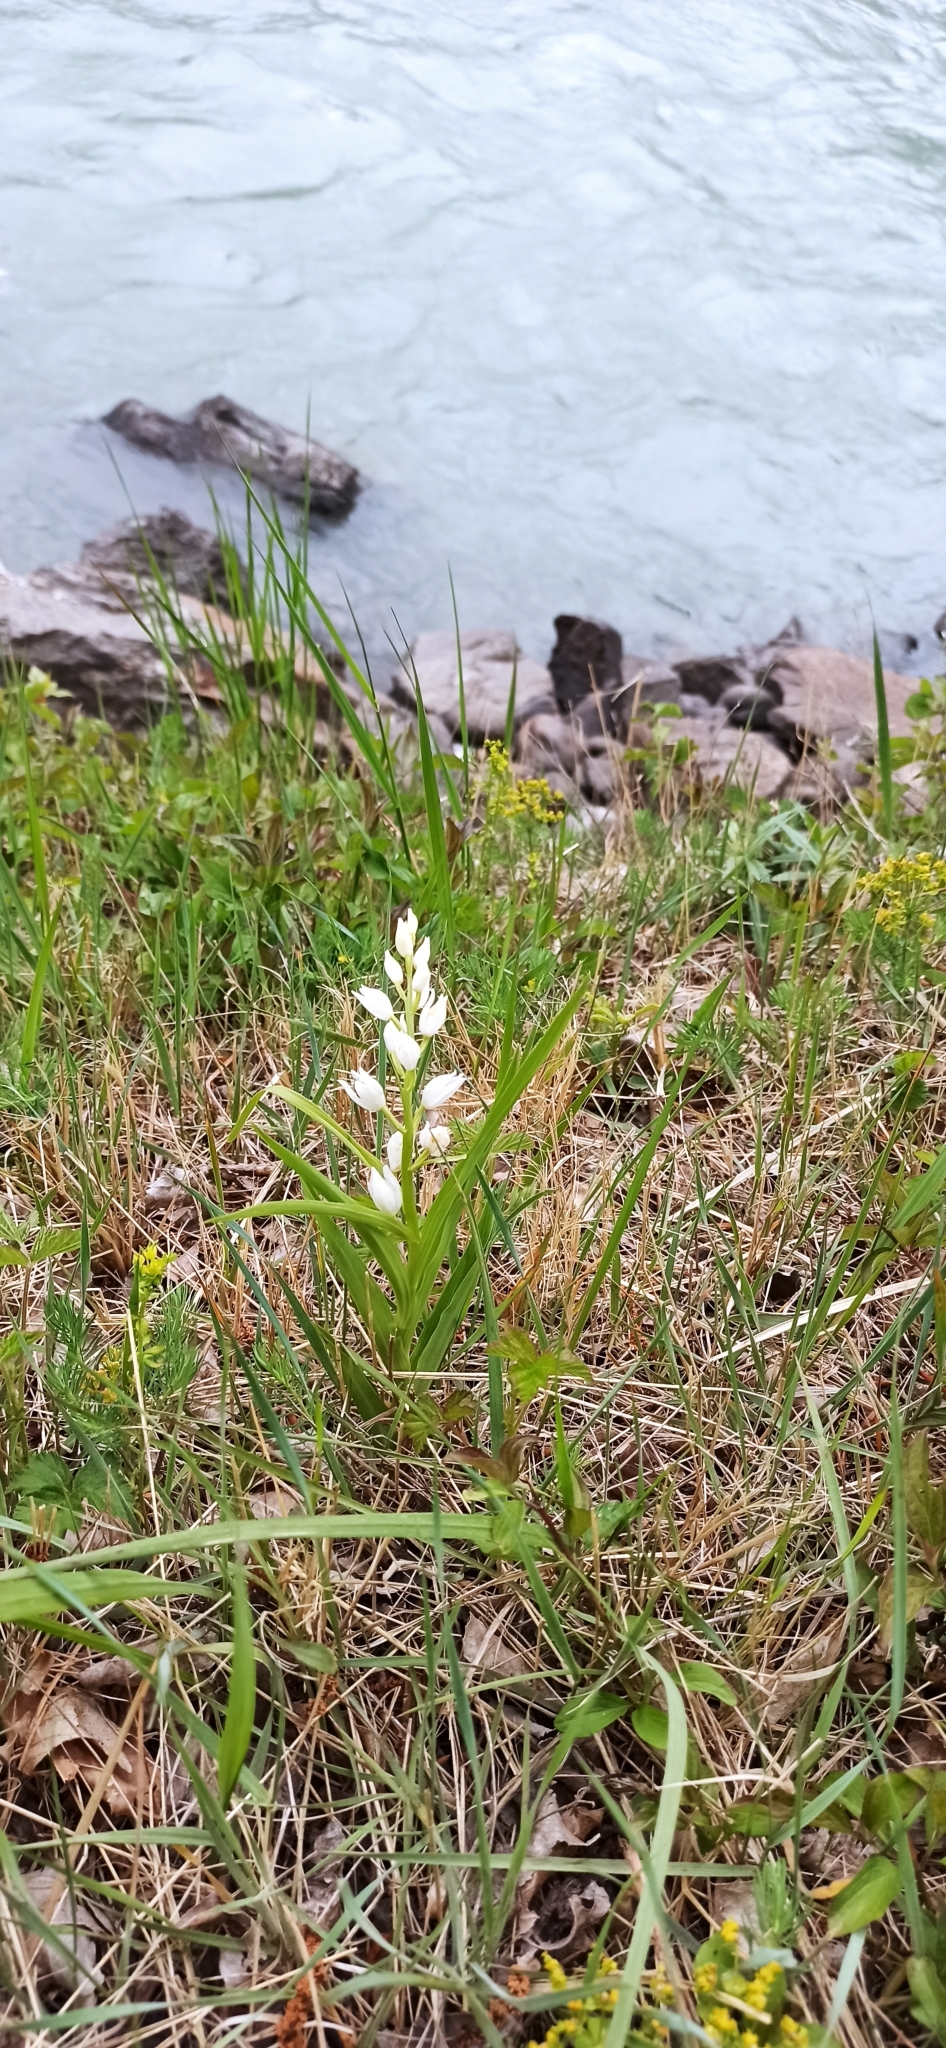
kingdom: Plantae
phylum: Tracheophyta
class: Liliopsida
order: Asparagales
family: Orchidaceae
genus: Cephalanthera
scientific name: Cephalanthera longifolia
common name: Narrow-leaved helleborine
